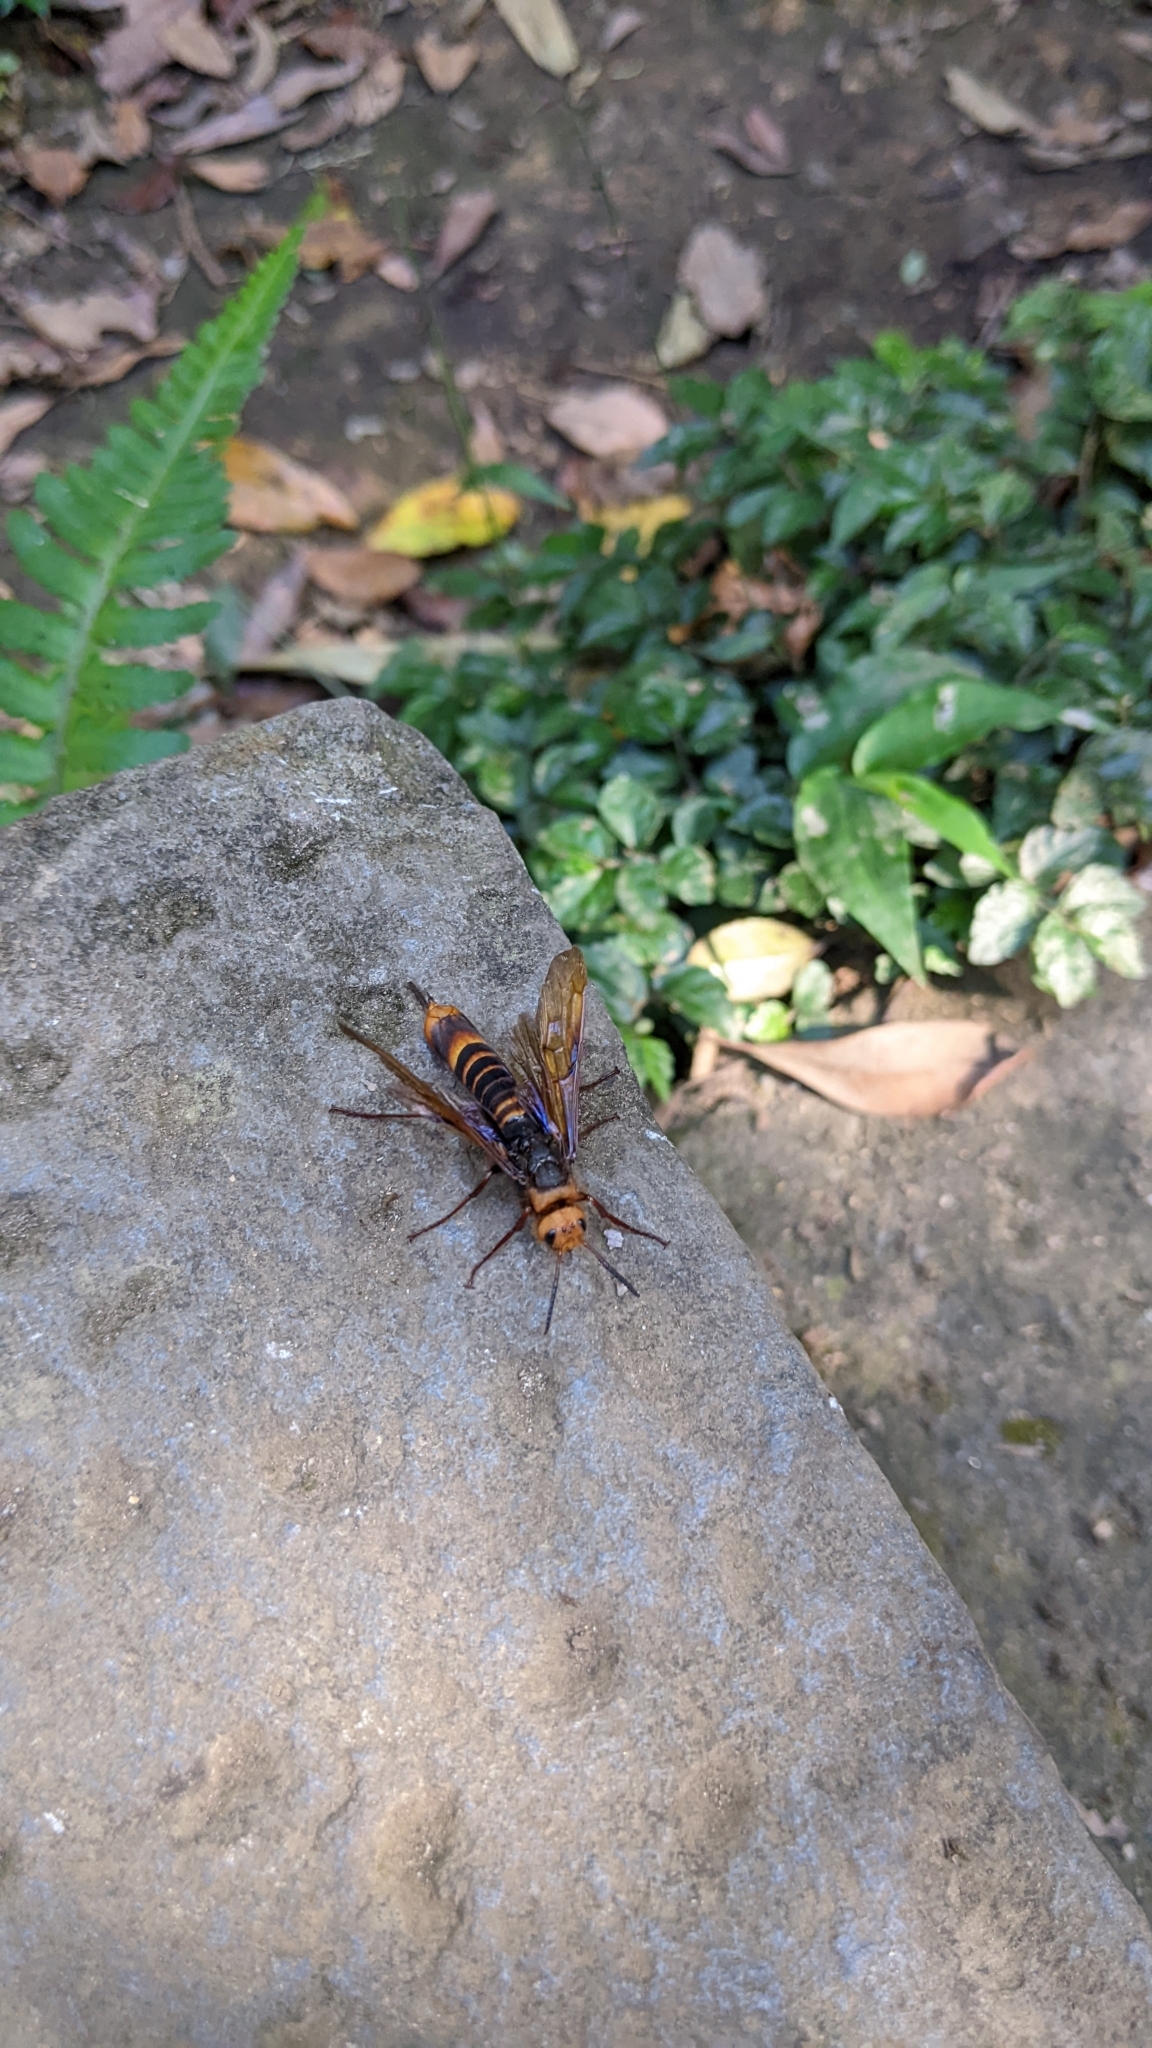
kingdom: Animalia
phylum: Arthropoda
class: Insecta
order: Hymenoptera
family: Siricidae
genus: Tremex
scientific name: Tremex chujoi
